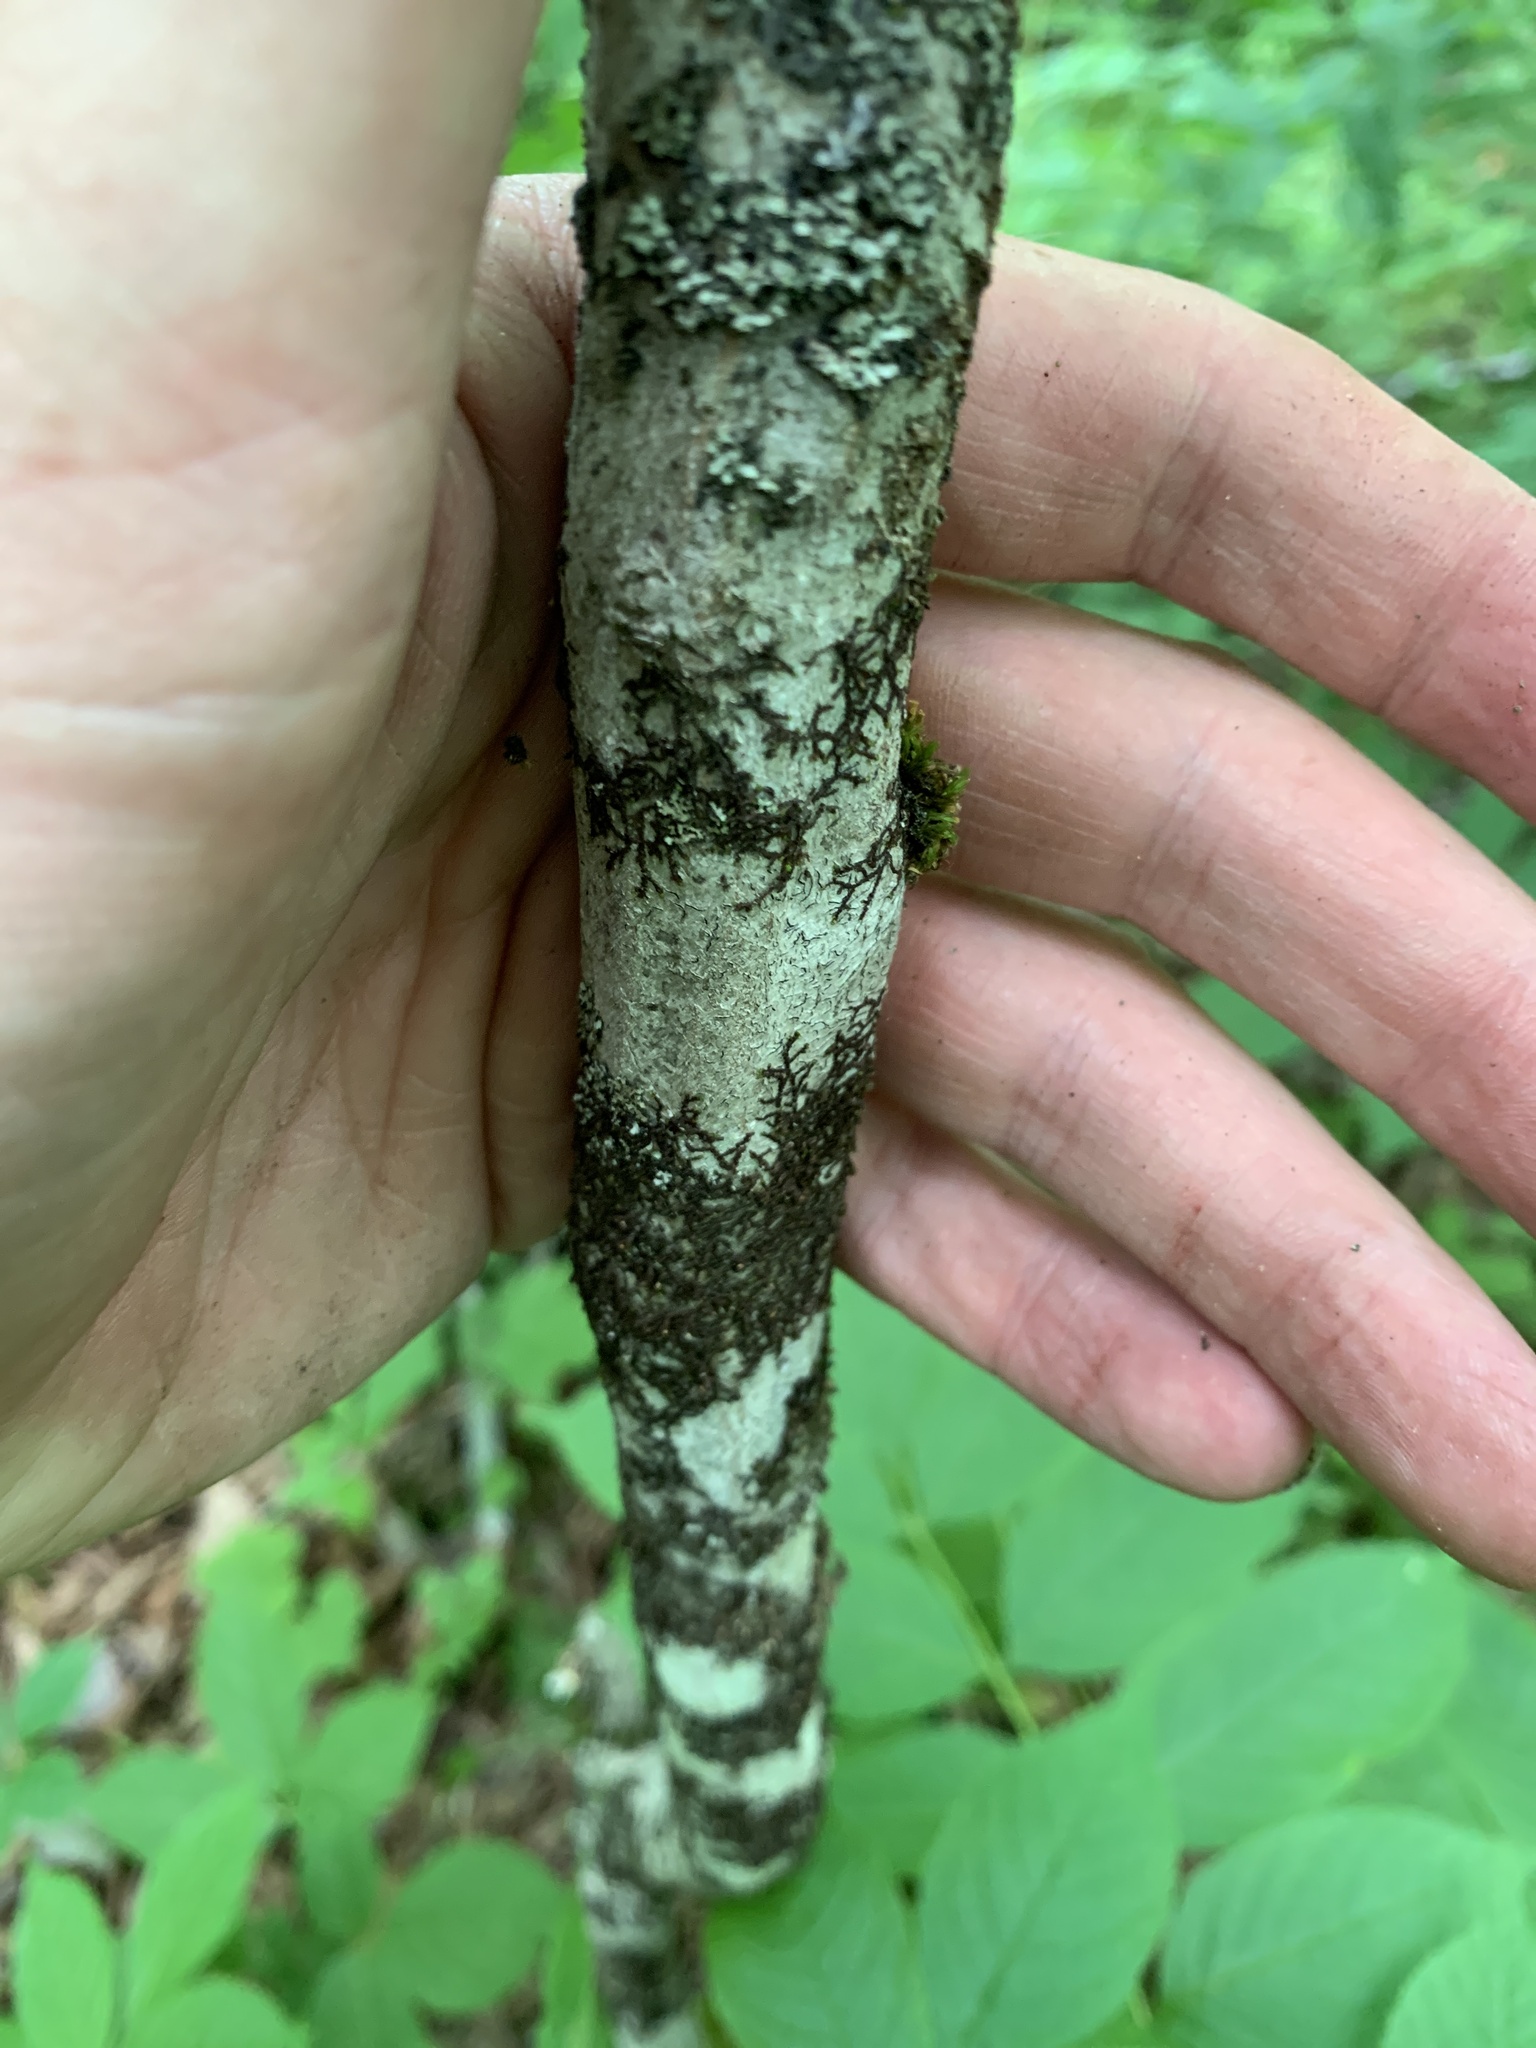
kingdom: Plantae
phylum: Tracheophyta
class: Magnoliopsida
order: Fagales
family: Betulaceae
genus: Carpinus
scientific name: Carpinus caroliniana
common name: American hornbeam
